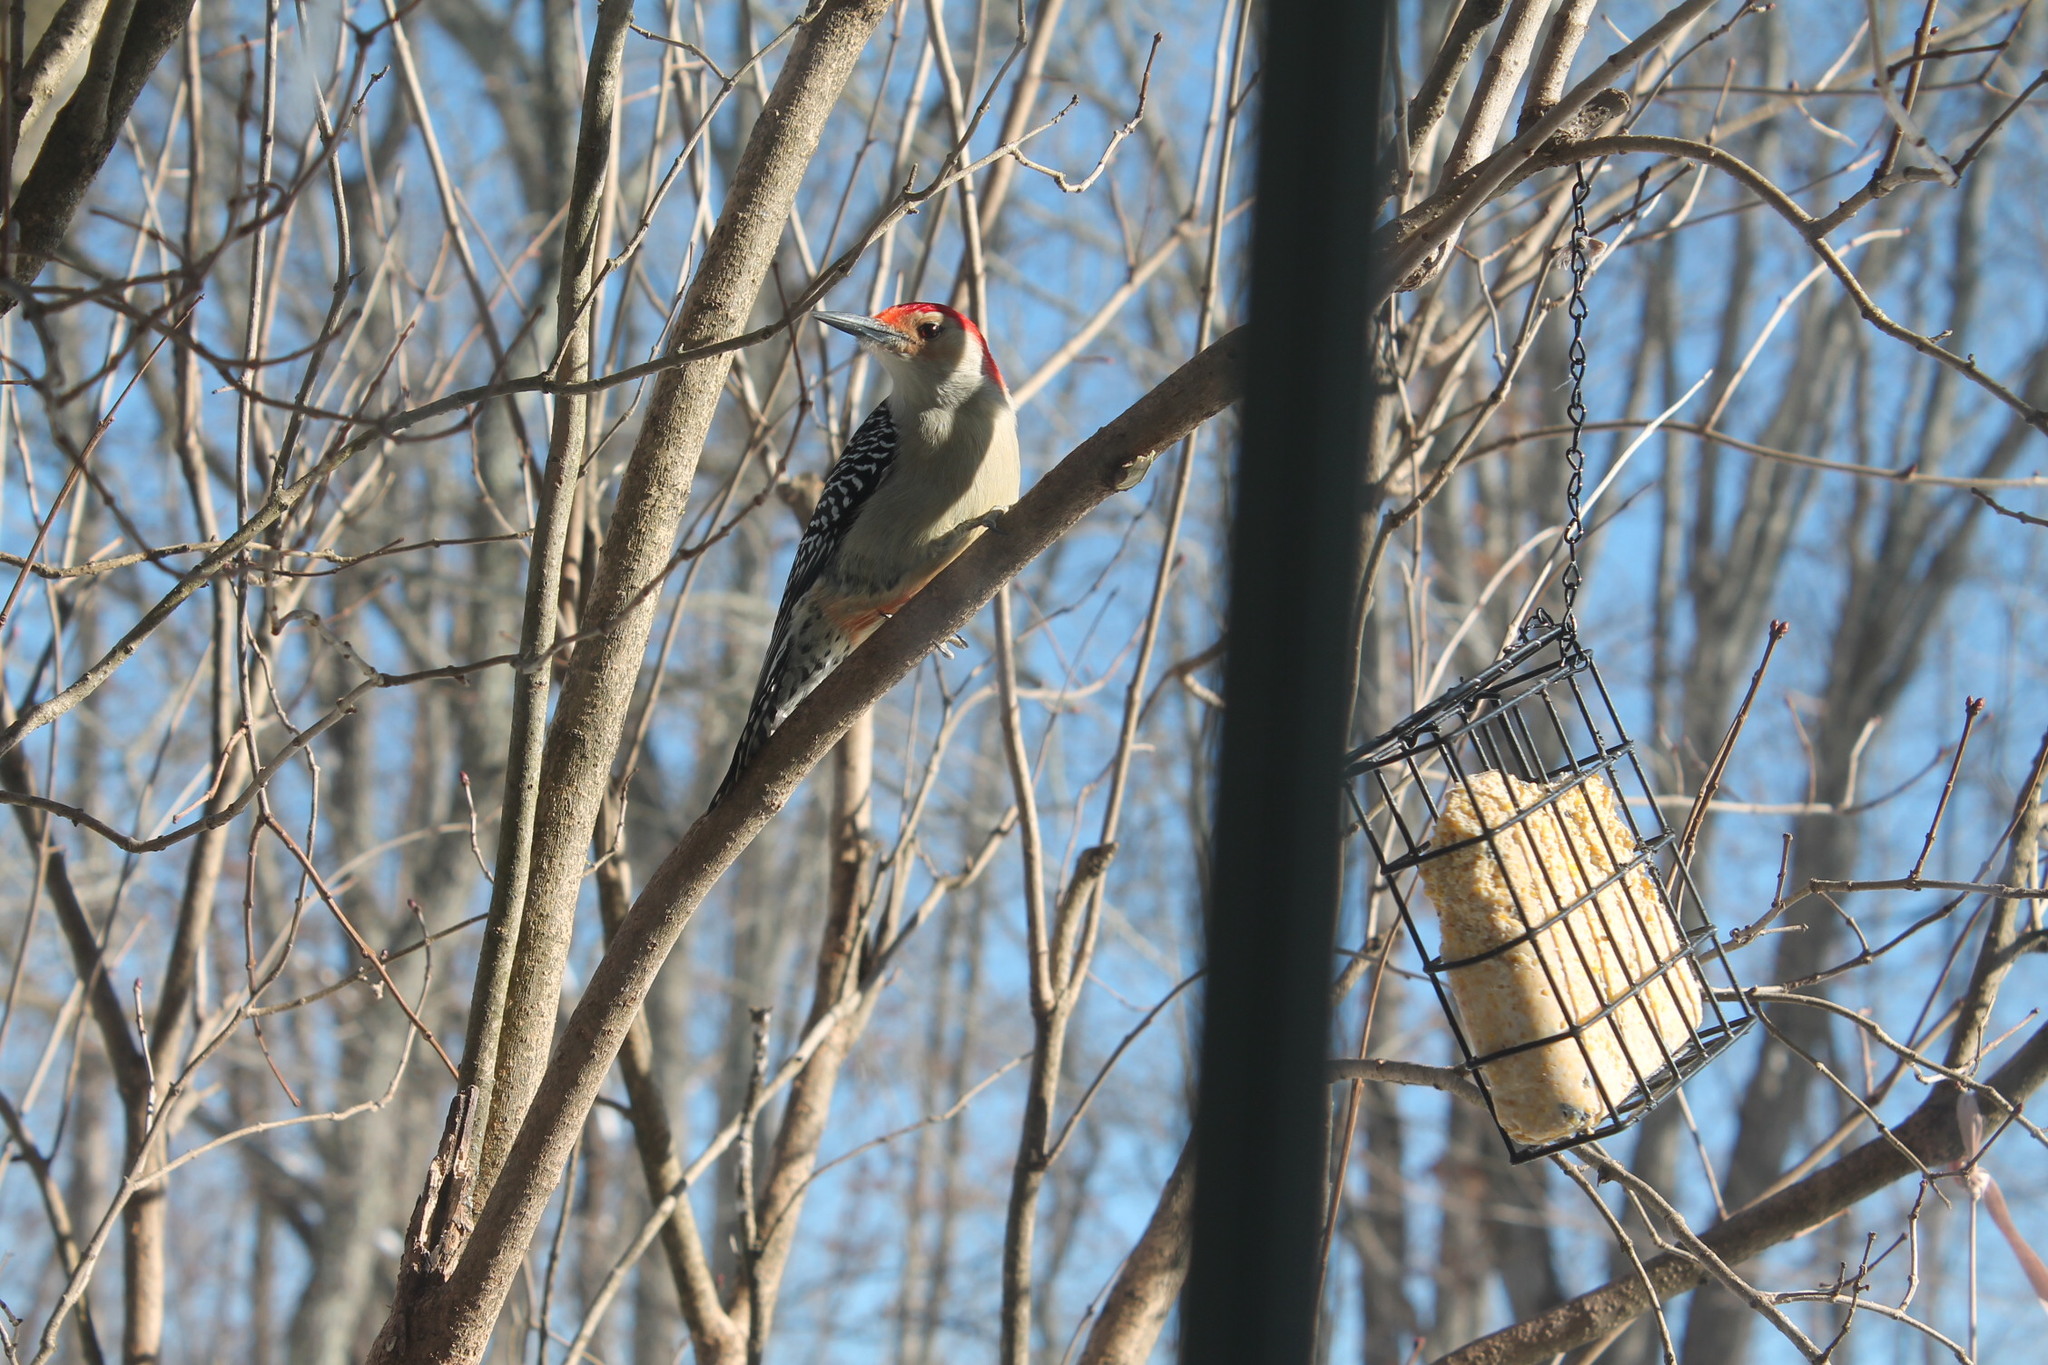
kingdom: Animalia
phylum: Chordata
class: Aves
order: Piciformes
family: Picidae
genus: Melanerpes
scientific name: Melanerpes carolinus
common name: Red-bellied woodpecker
